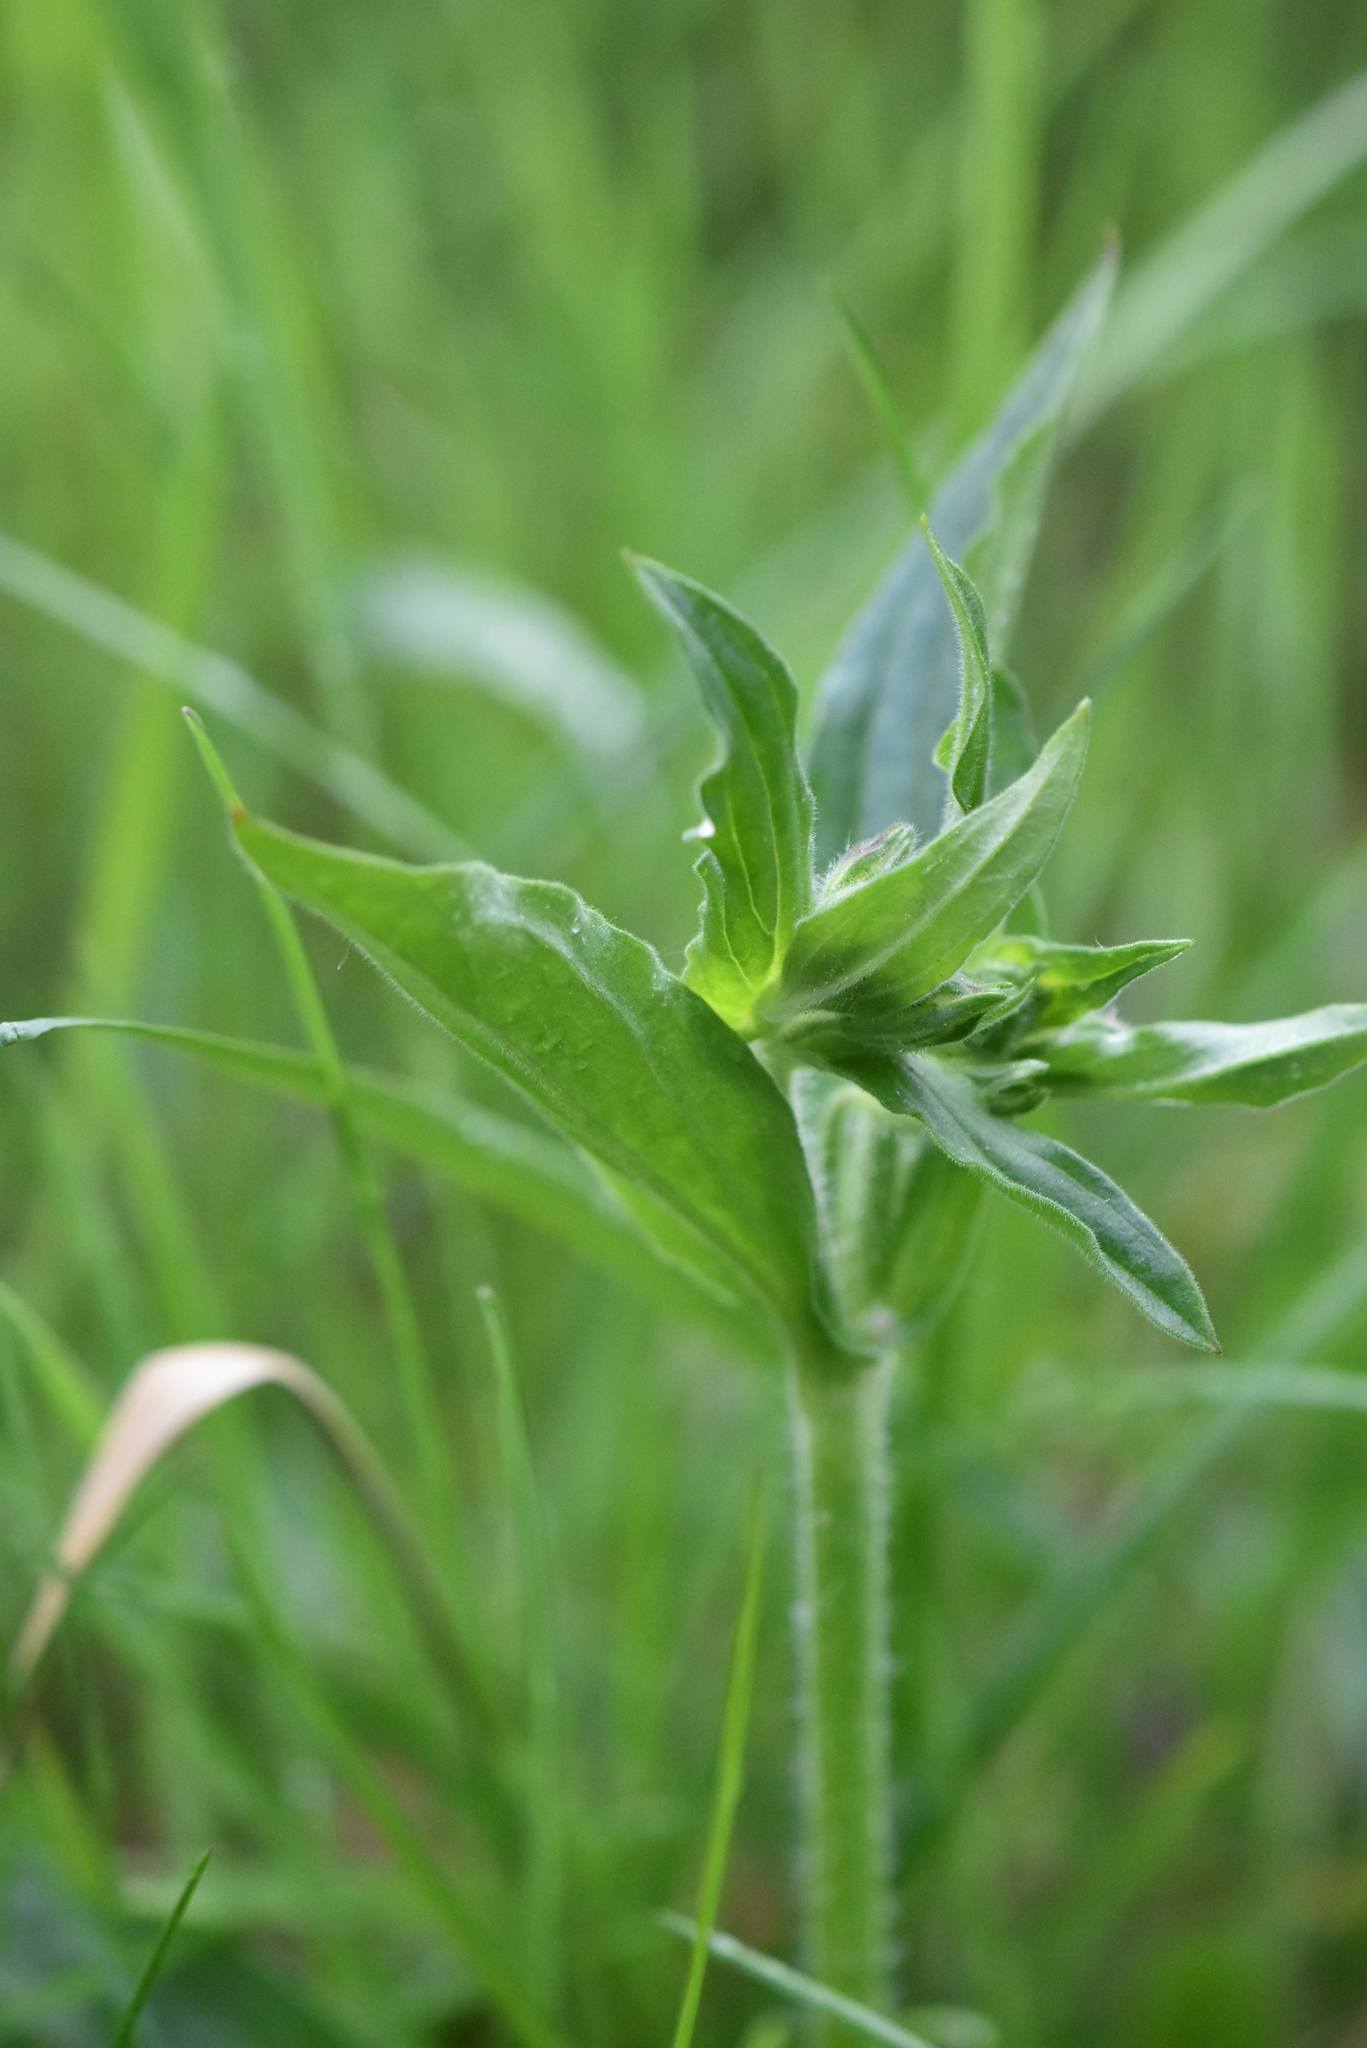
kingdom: Plantae
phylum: Tracheophyta
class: Magnoliopsida
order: Caryophyllales
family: Caryophyllaceae
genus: Silene
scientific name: Silene dioica
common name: Red campion
